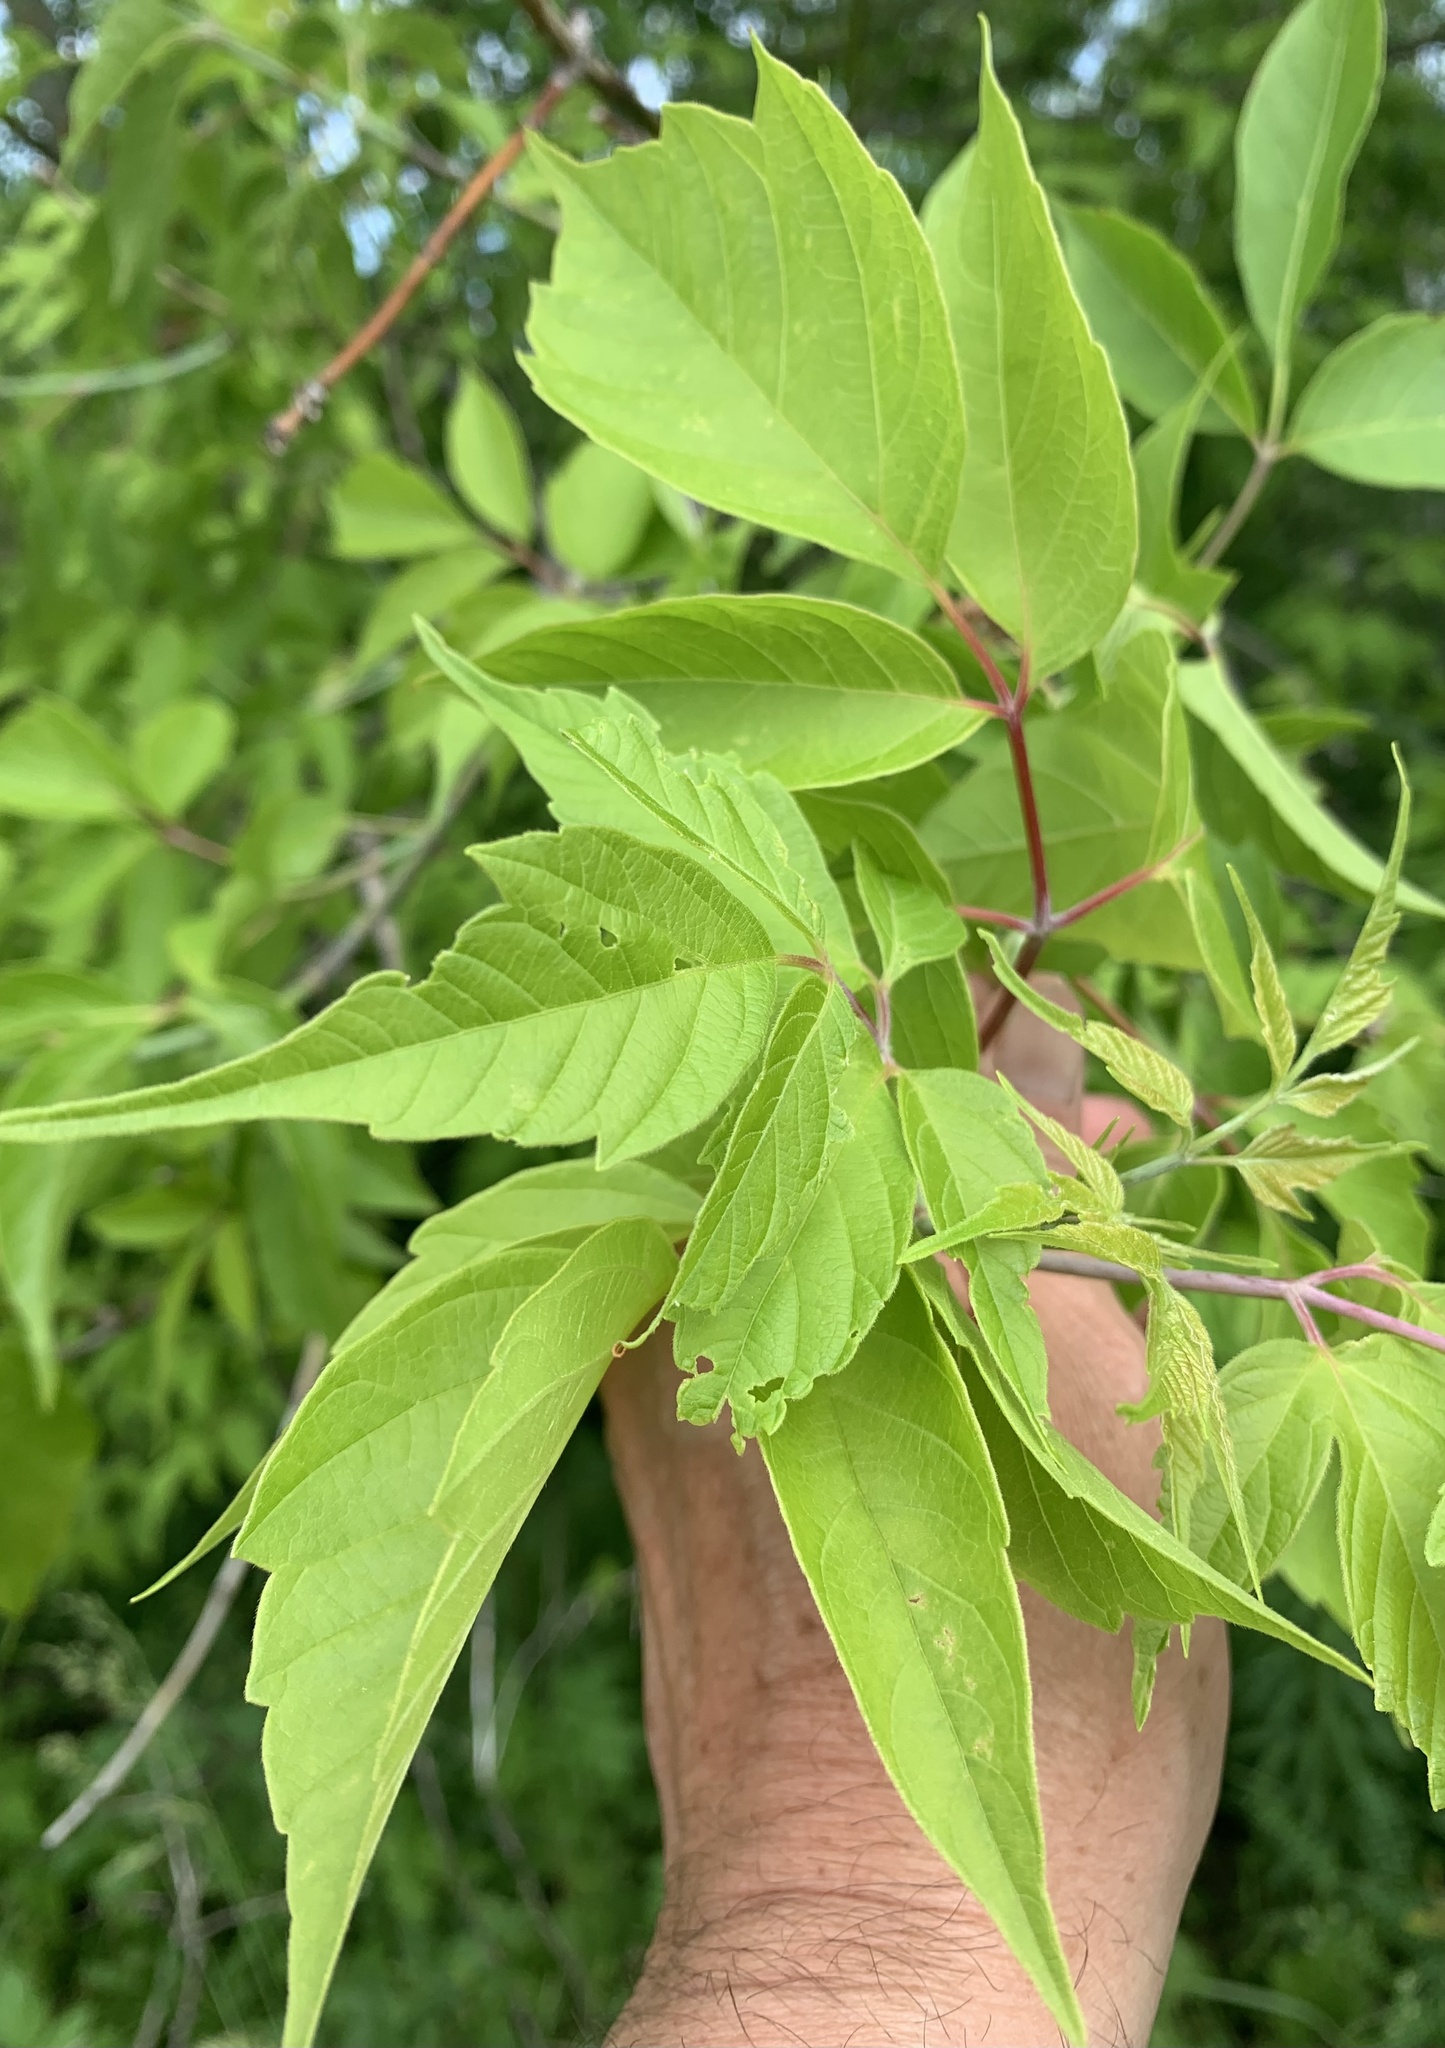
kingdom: Plantae
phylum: Tracheophyta
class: Magnoliopsida
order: Sapindales
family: Sapindaceae
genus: Acer
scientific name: Acer negundo
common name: Ashleaf maple
